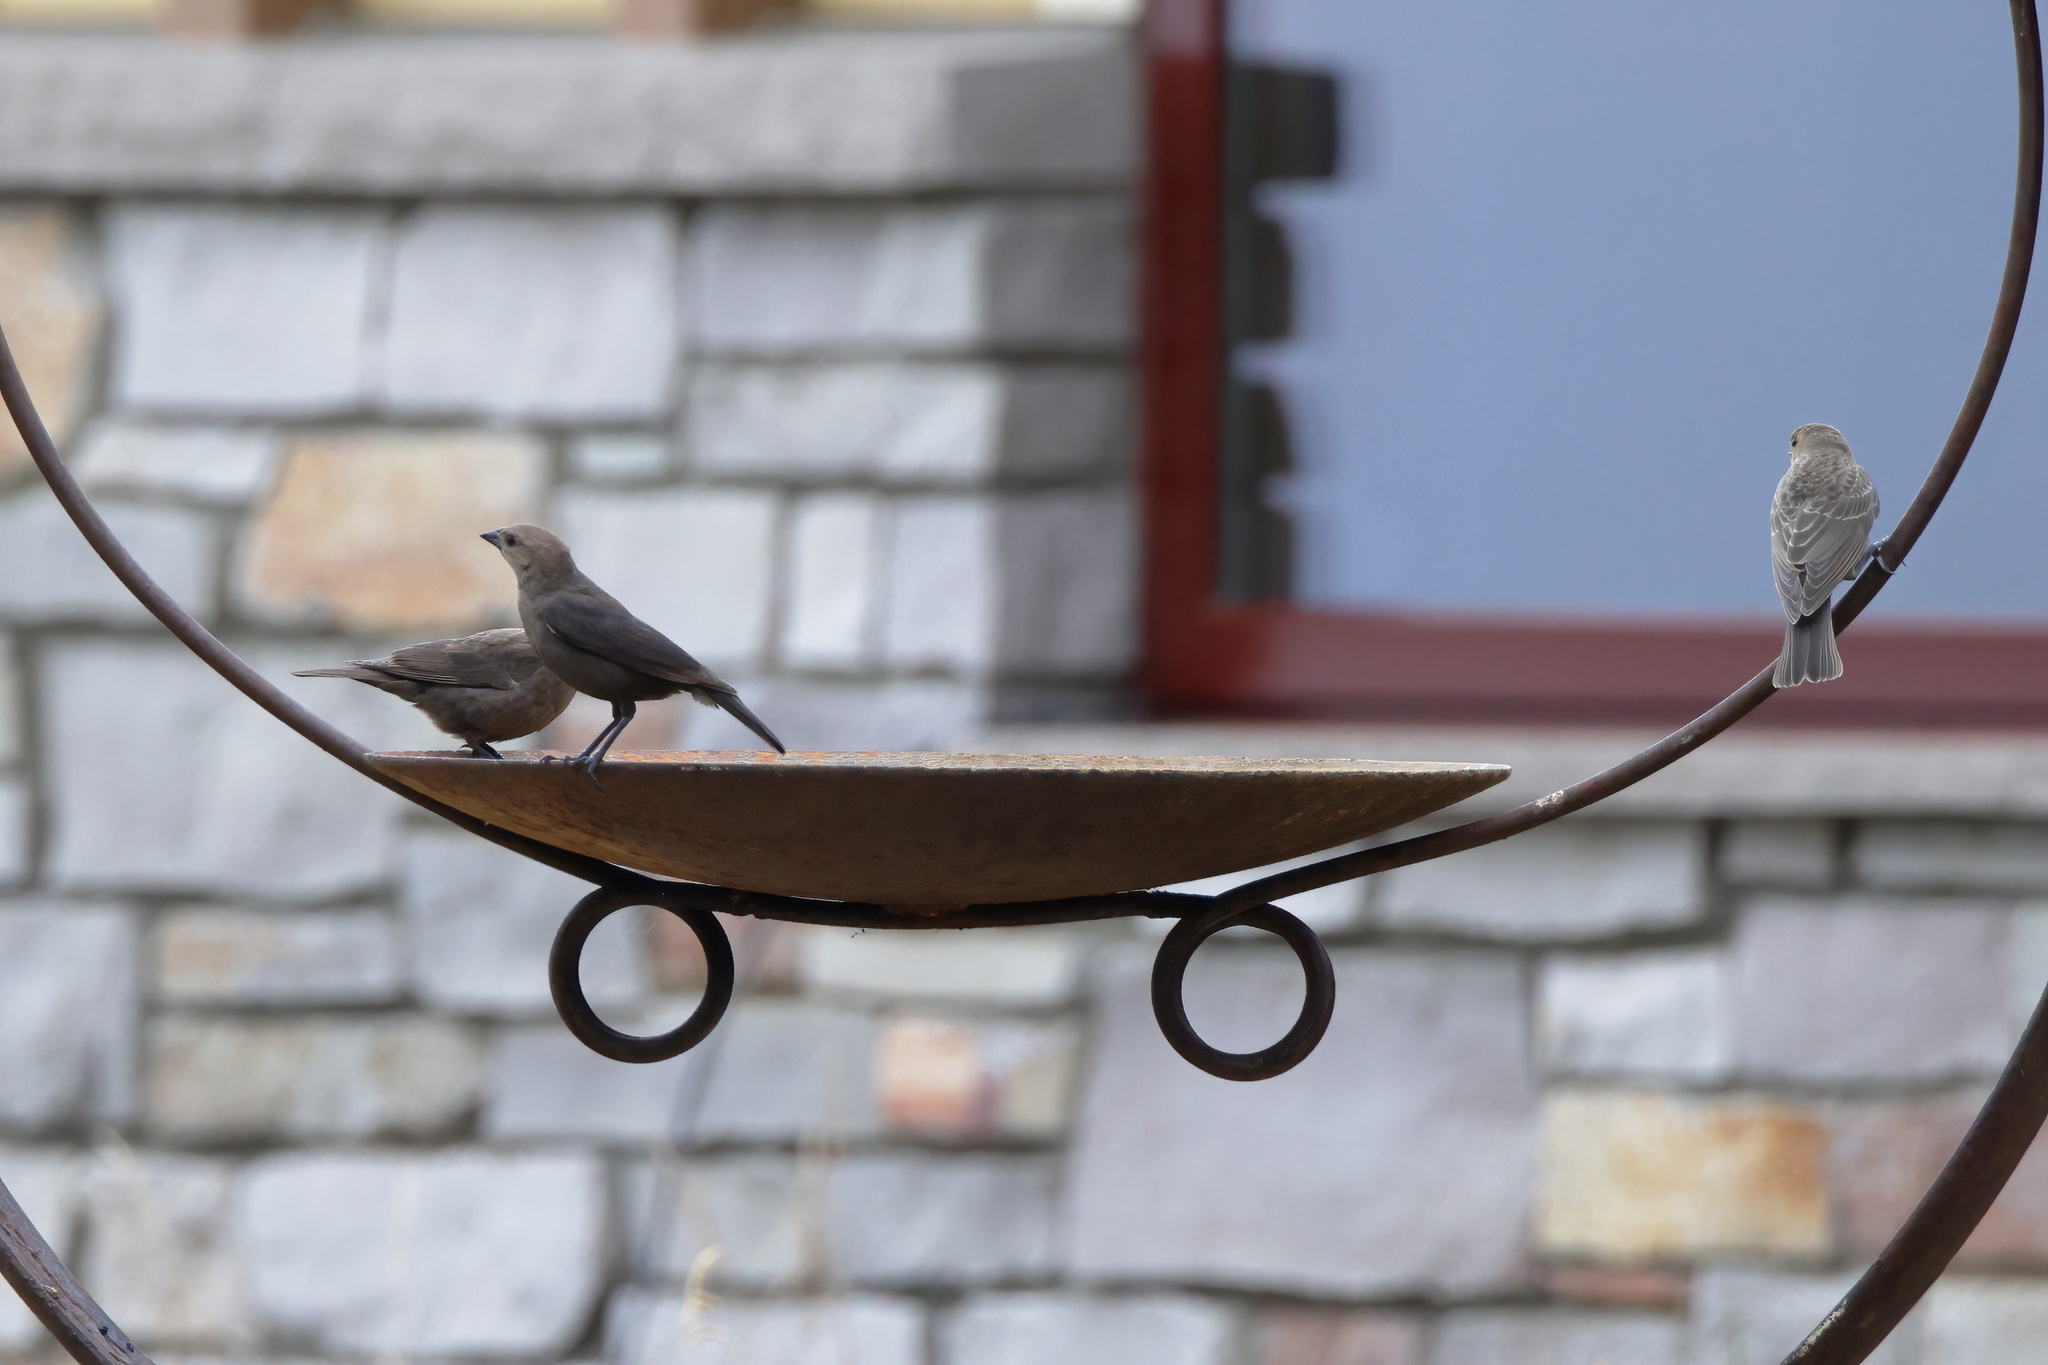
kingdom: Animalia
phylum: Chordata
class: Aves
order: Passeriformes
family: Icteridae
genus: Molothrus
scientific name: Molothrus ater
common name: Brown-headed cowbird
